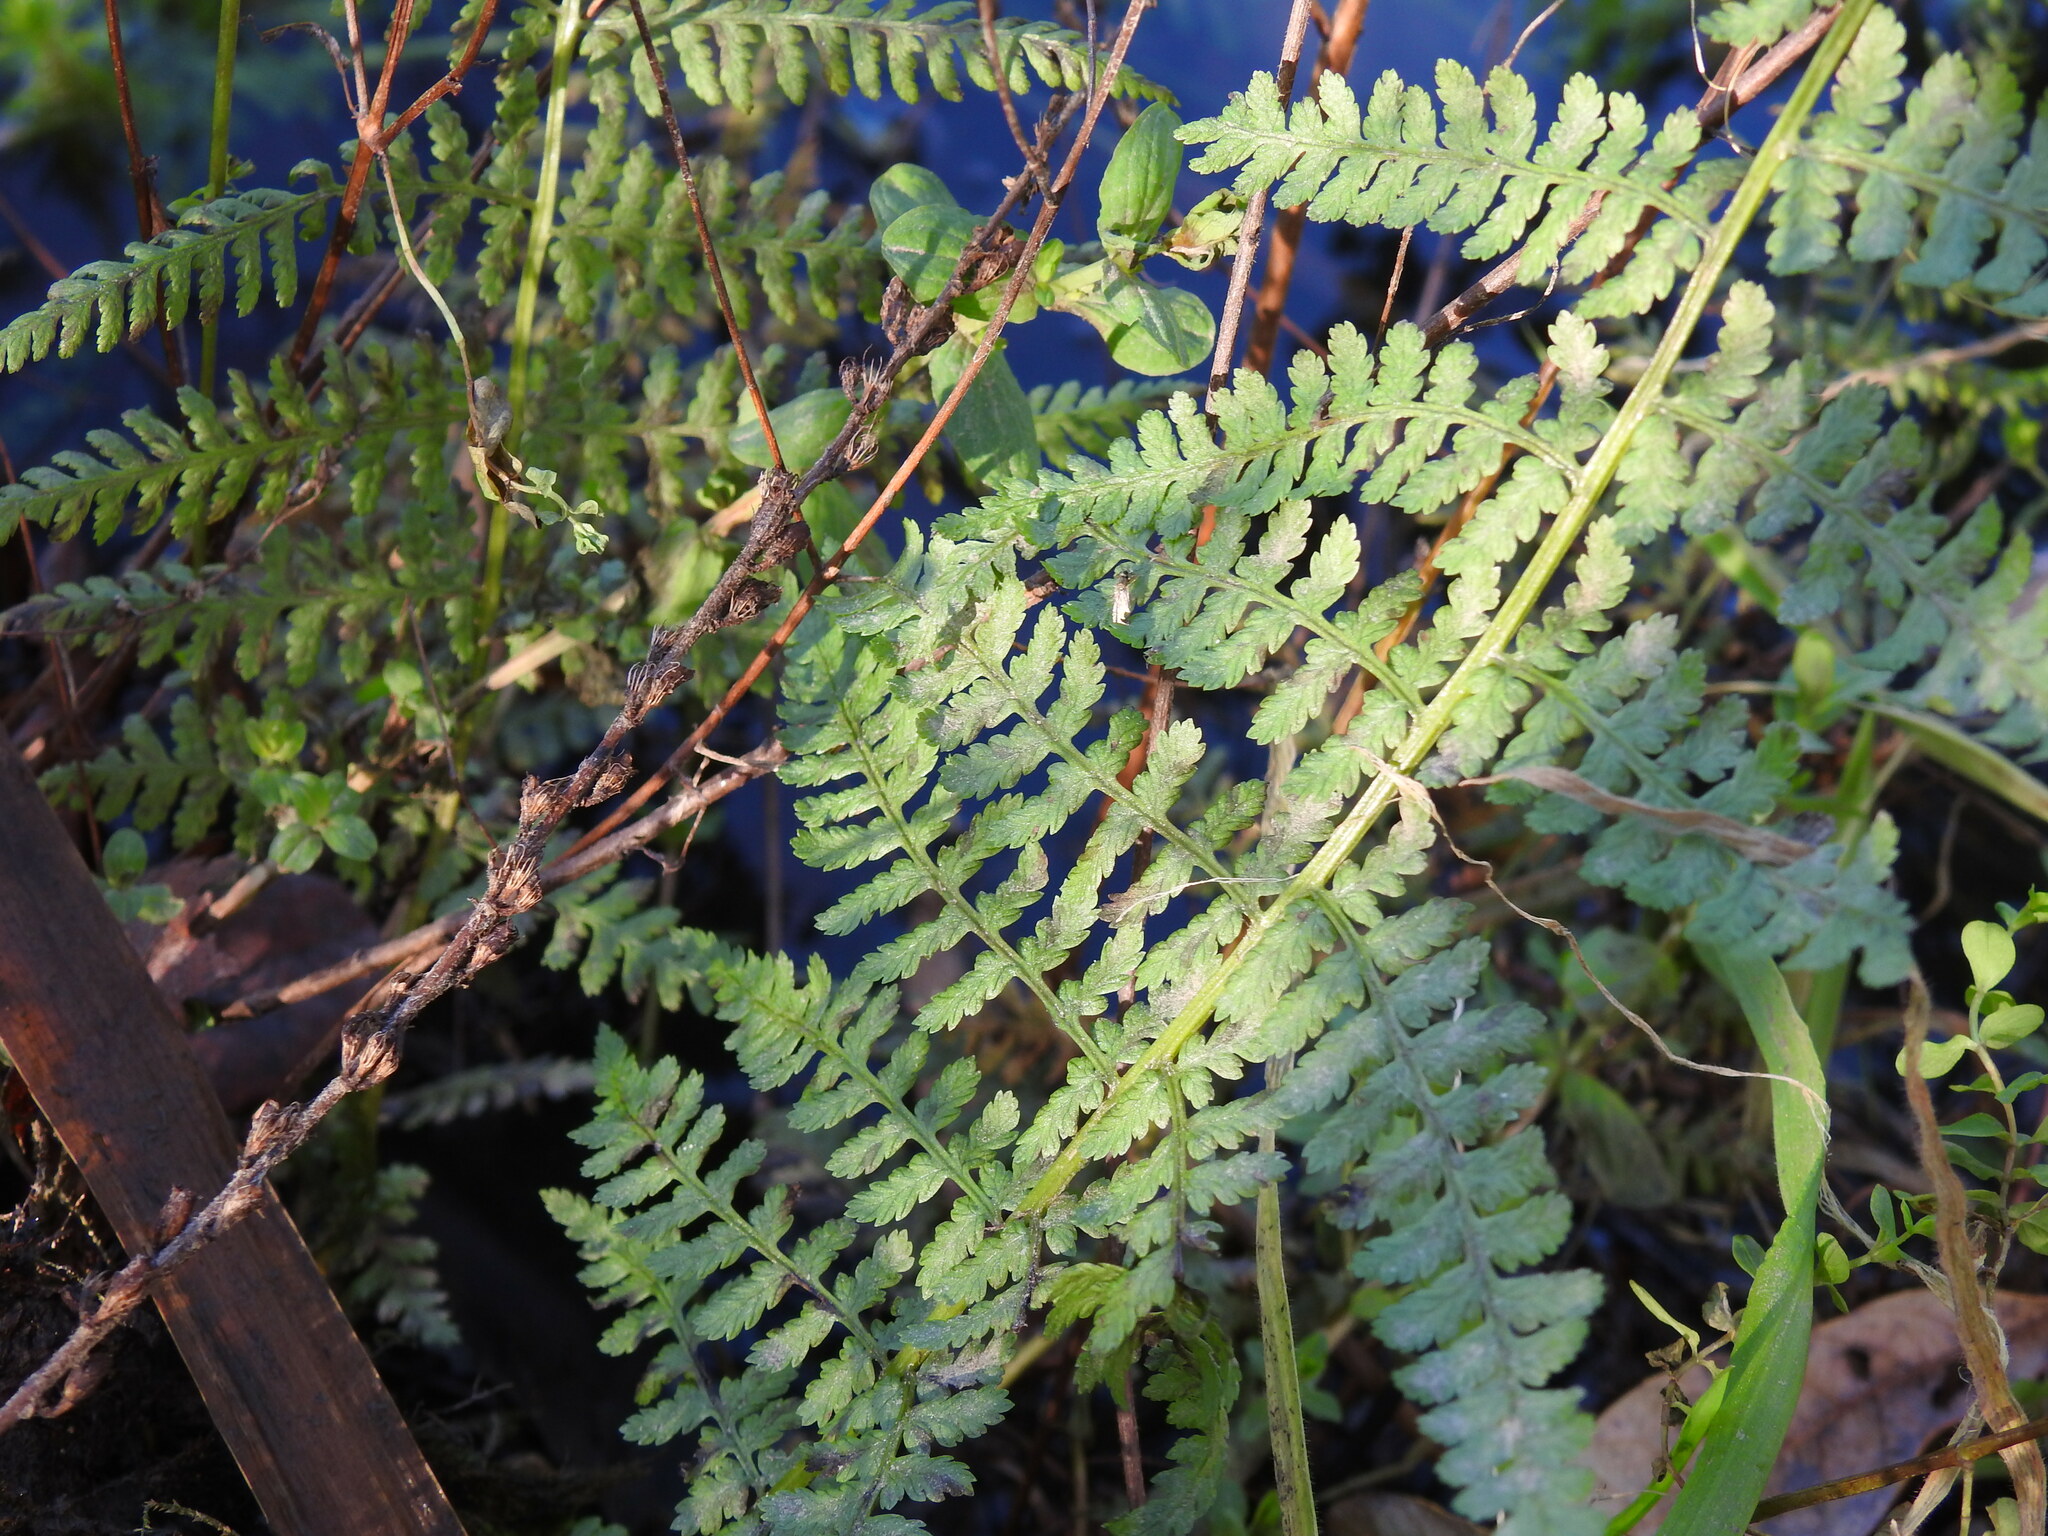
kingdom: Plantae
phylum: Tracheophyta
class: Polypodiopsida
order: Polypodiales
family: Athyriaceae
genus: Athyrium
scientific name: Athyrium filix-femina
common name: Lady fern
